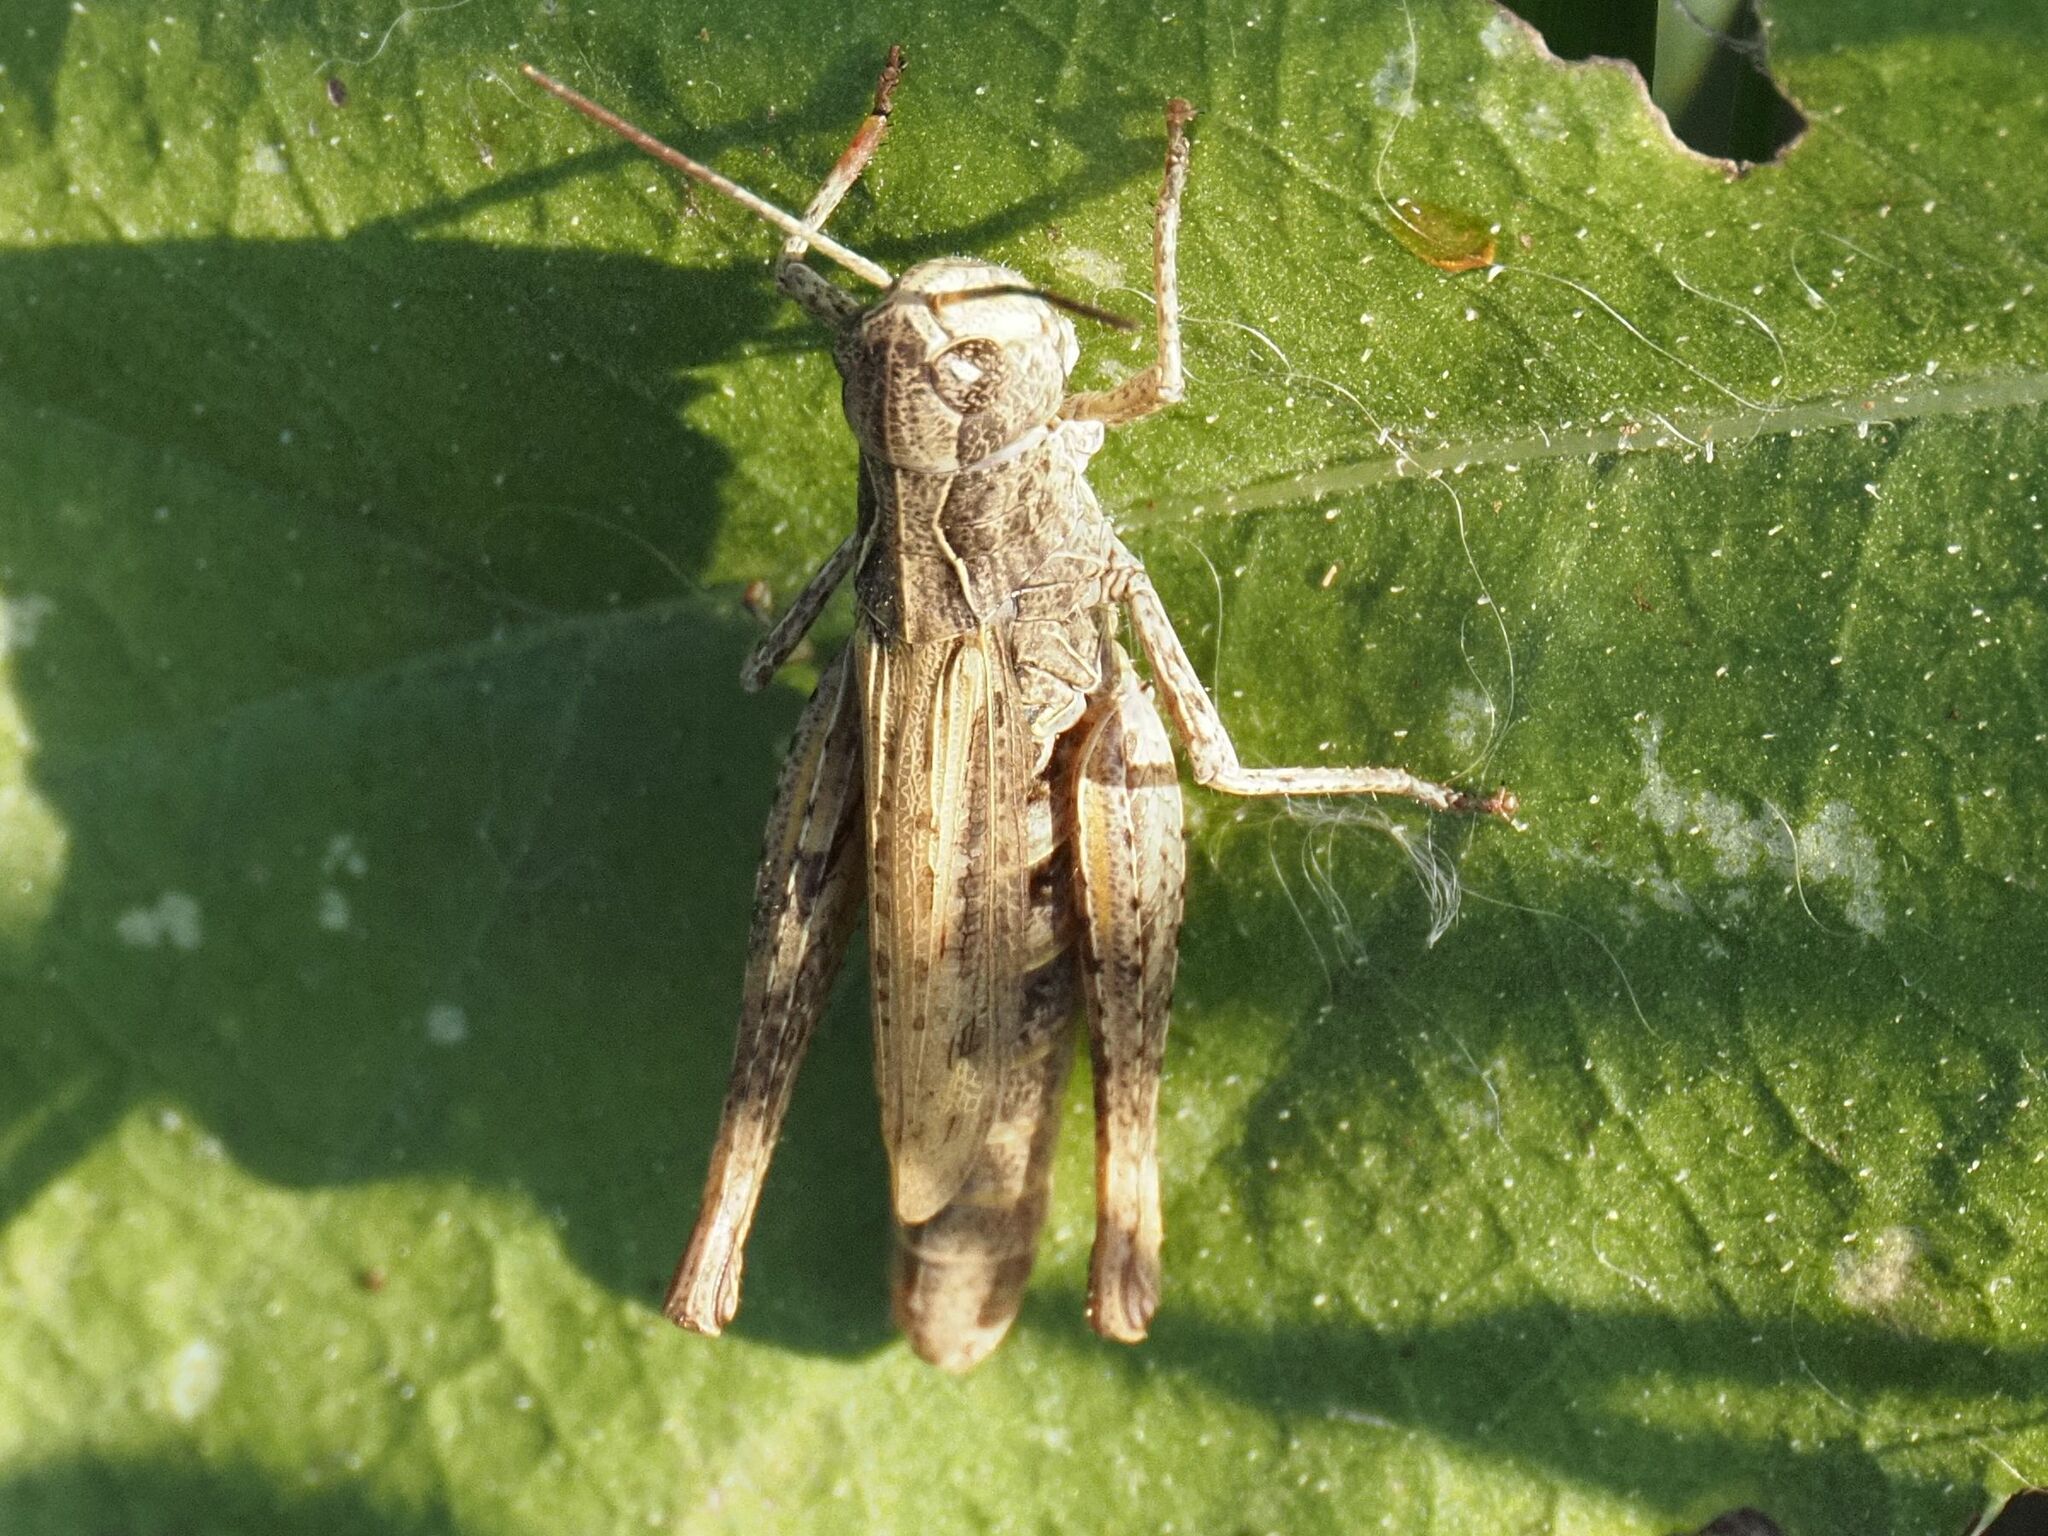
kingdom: Animalia
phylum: Arthropoda
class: Insecta
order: Orthoptera
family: Acrididae
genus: Chorthippus
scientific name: Chorthippus apricarius
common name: Upland field grasshopper
